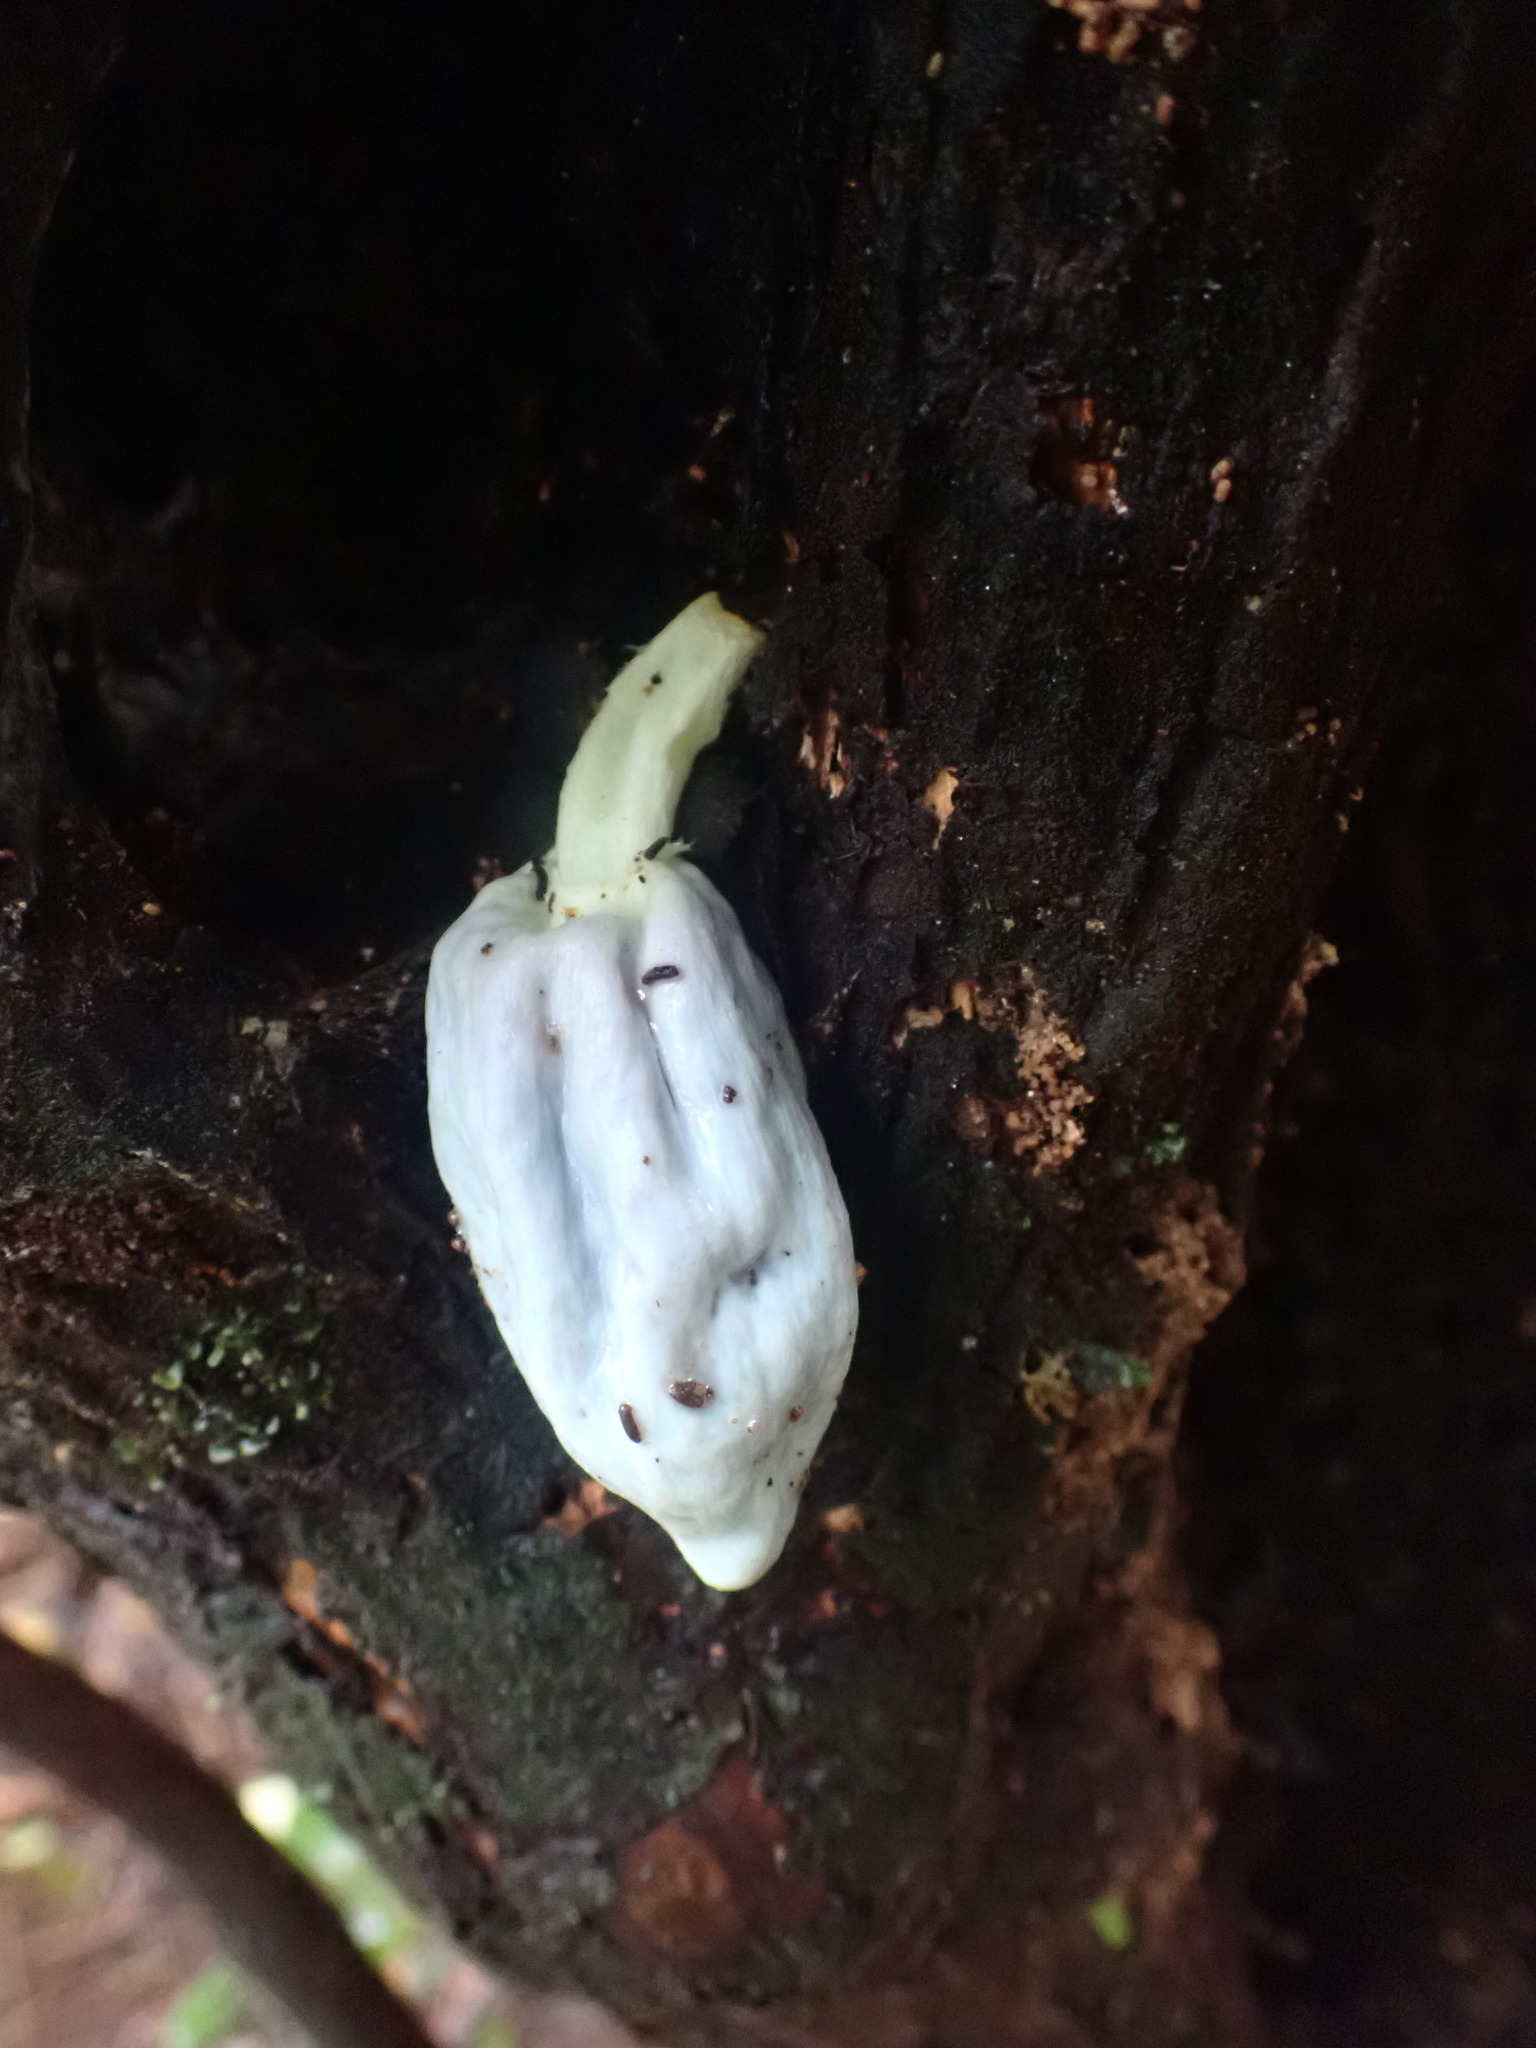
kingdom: Fungi
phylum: Basidiomycota
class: Agaricomycetes
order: Agaricales
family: Agaricaceae
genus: Clavogaster
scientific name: Clavogaster virescens
